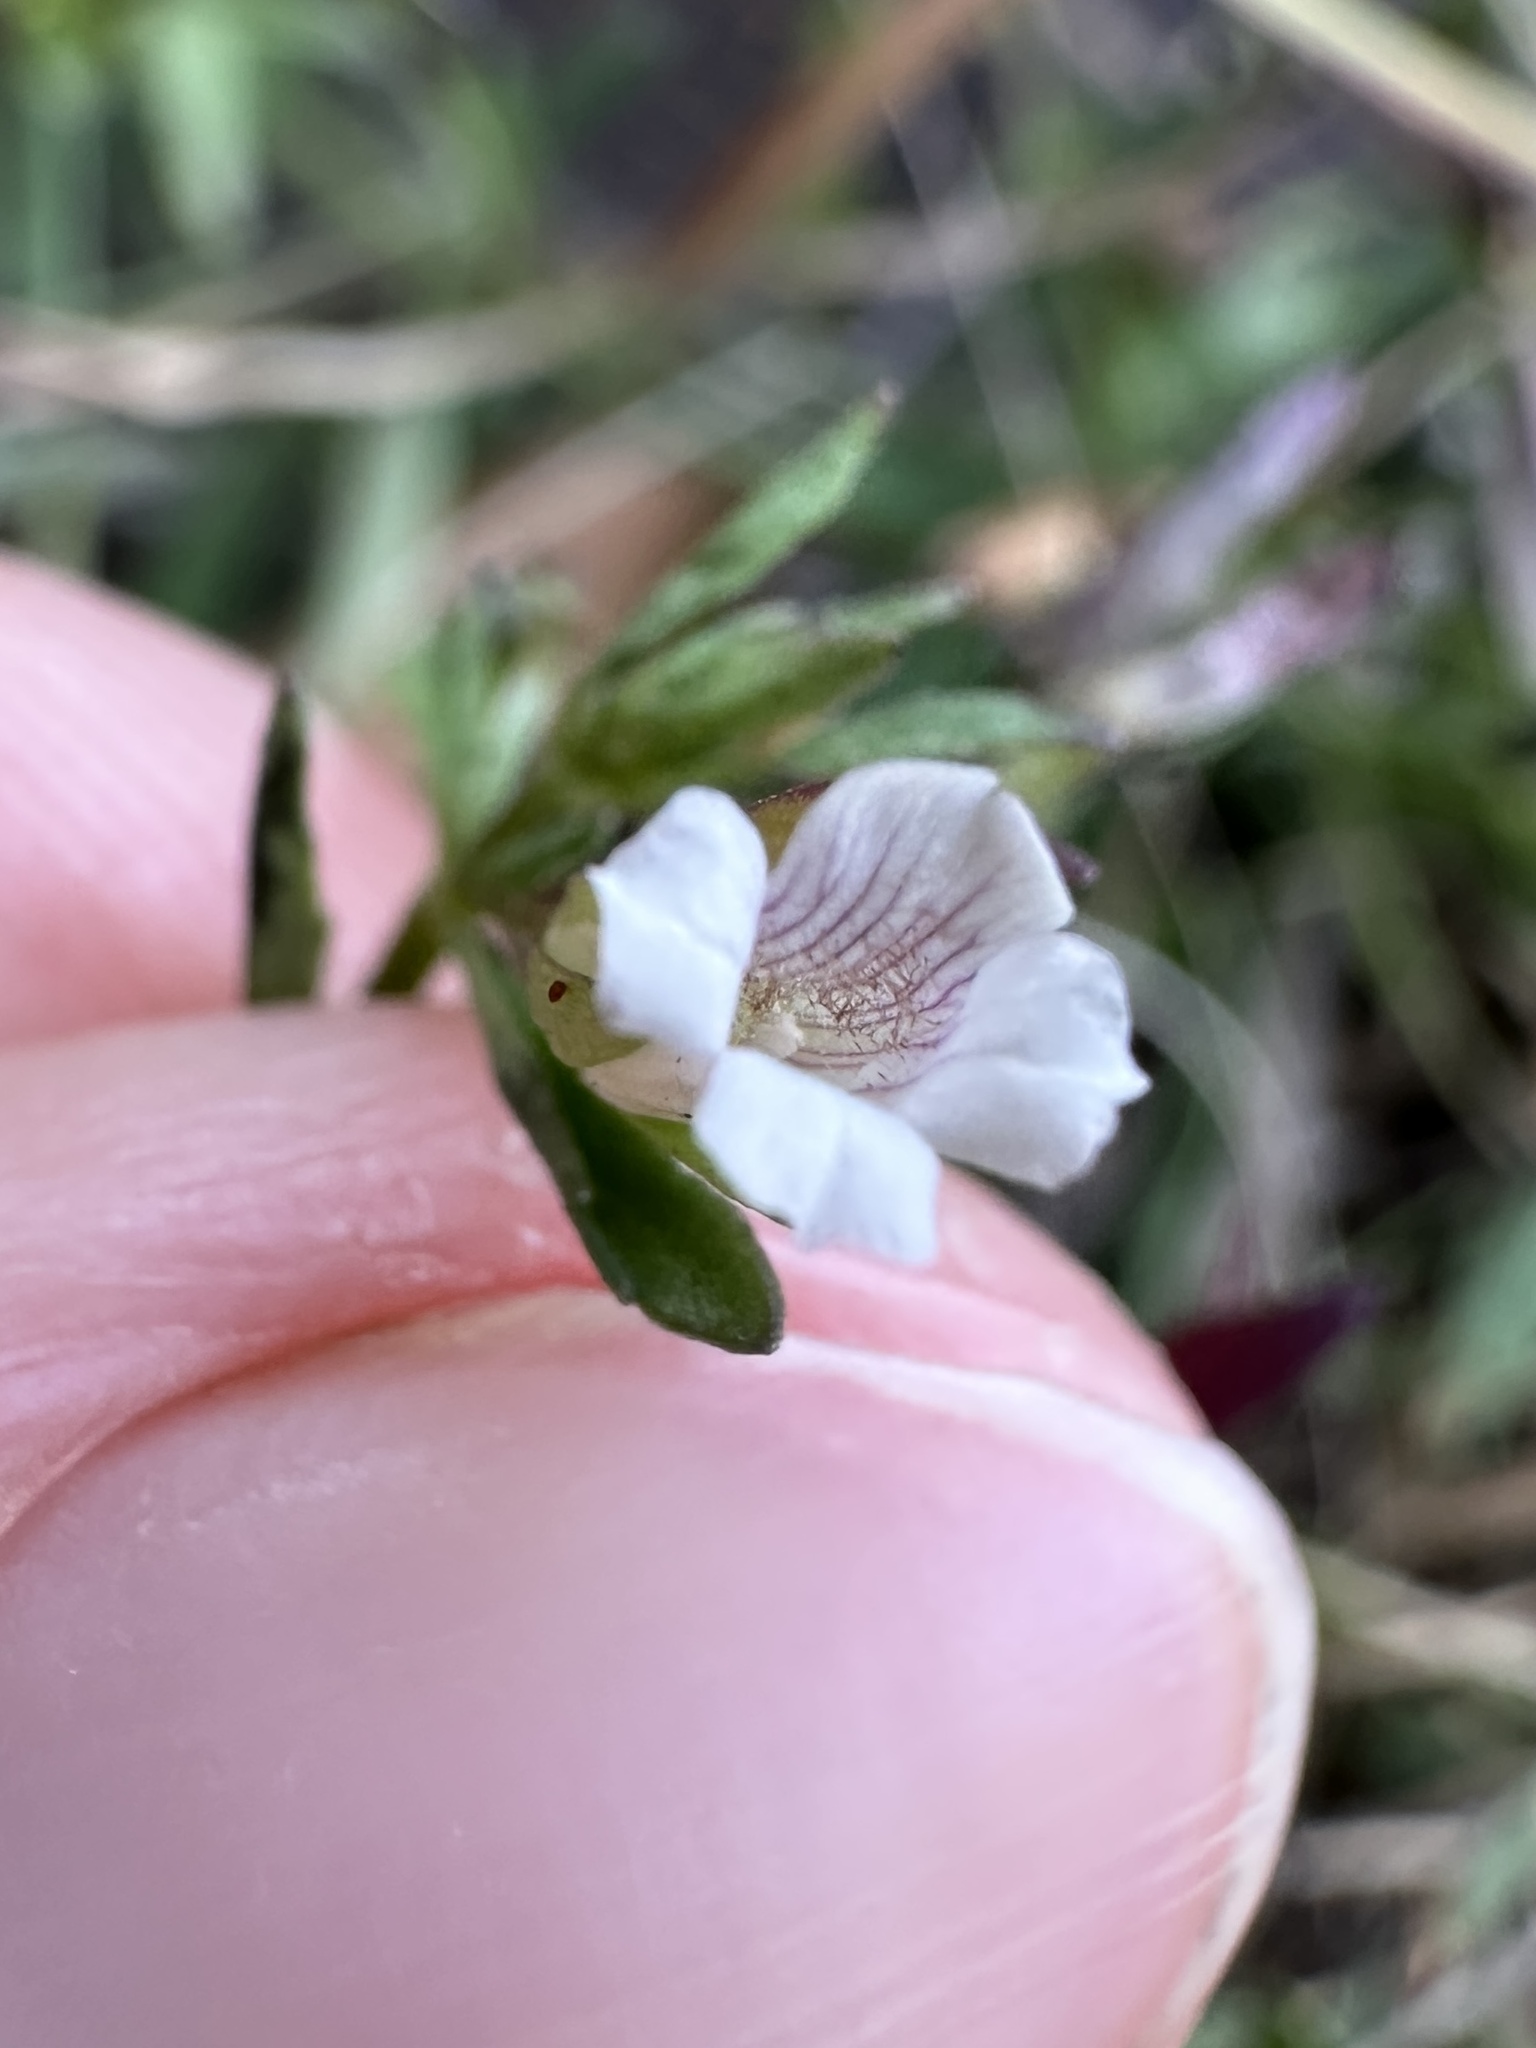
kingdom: Plantae
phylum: Tracheophyta
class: Magnoliopsida
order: Lamiales
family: Plantaginaceae
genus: Mecardonia
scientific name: Mecardonia acuminata
